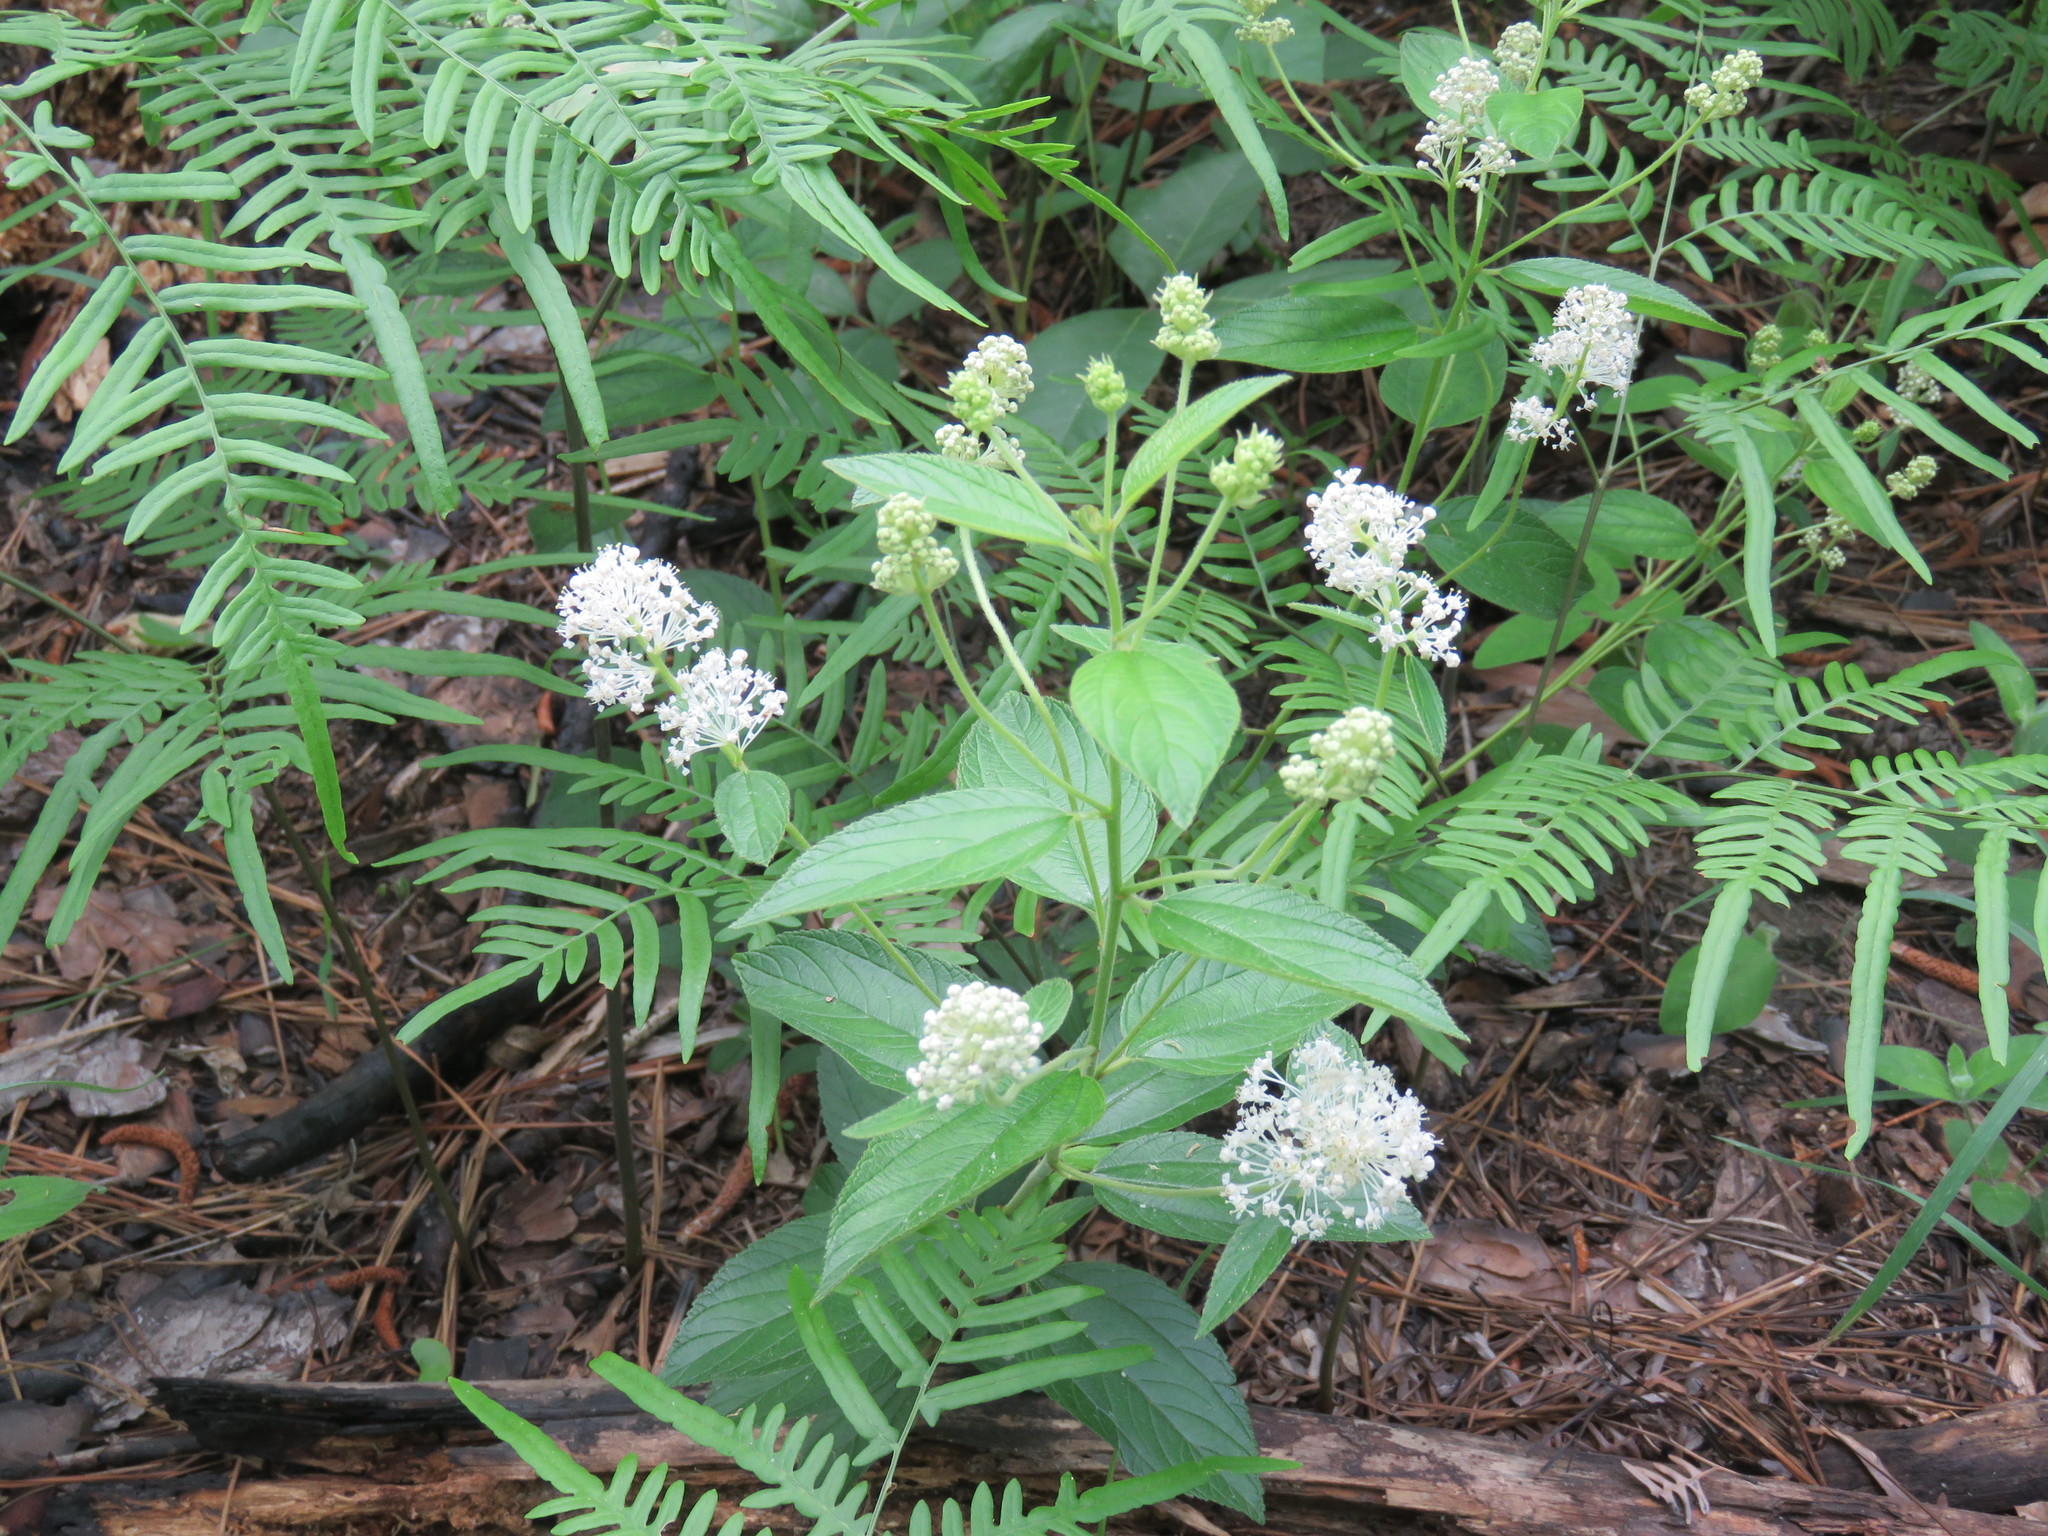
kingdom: Plantae
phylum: Tracheophyta
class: Magnoliopsida
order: Rosales
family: Rhamnaceae
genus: Ceanothus
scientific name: Ceanothus americanus
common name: Redroot
